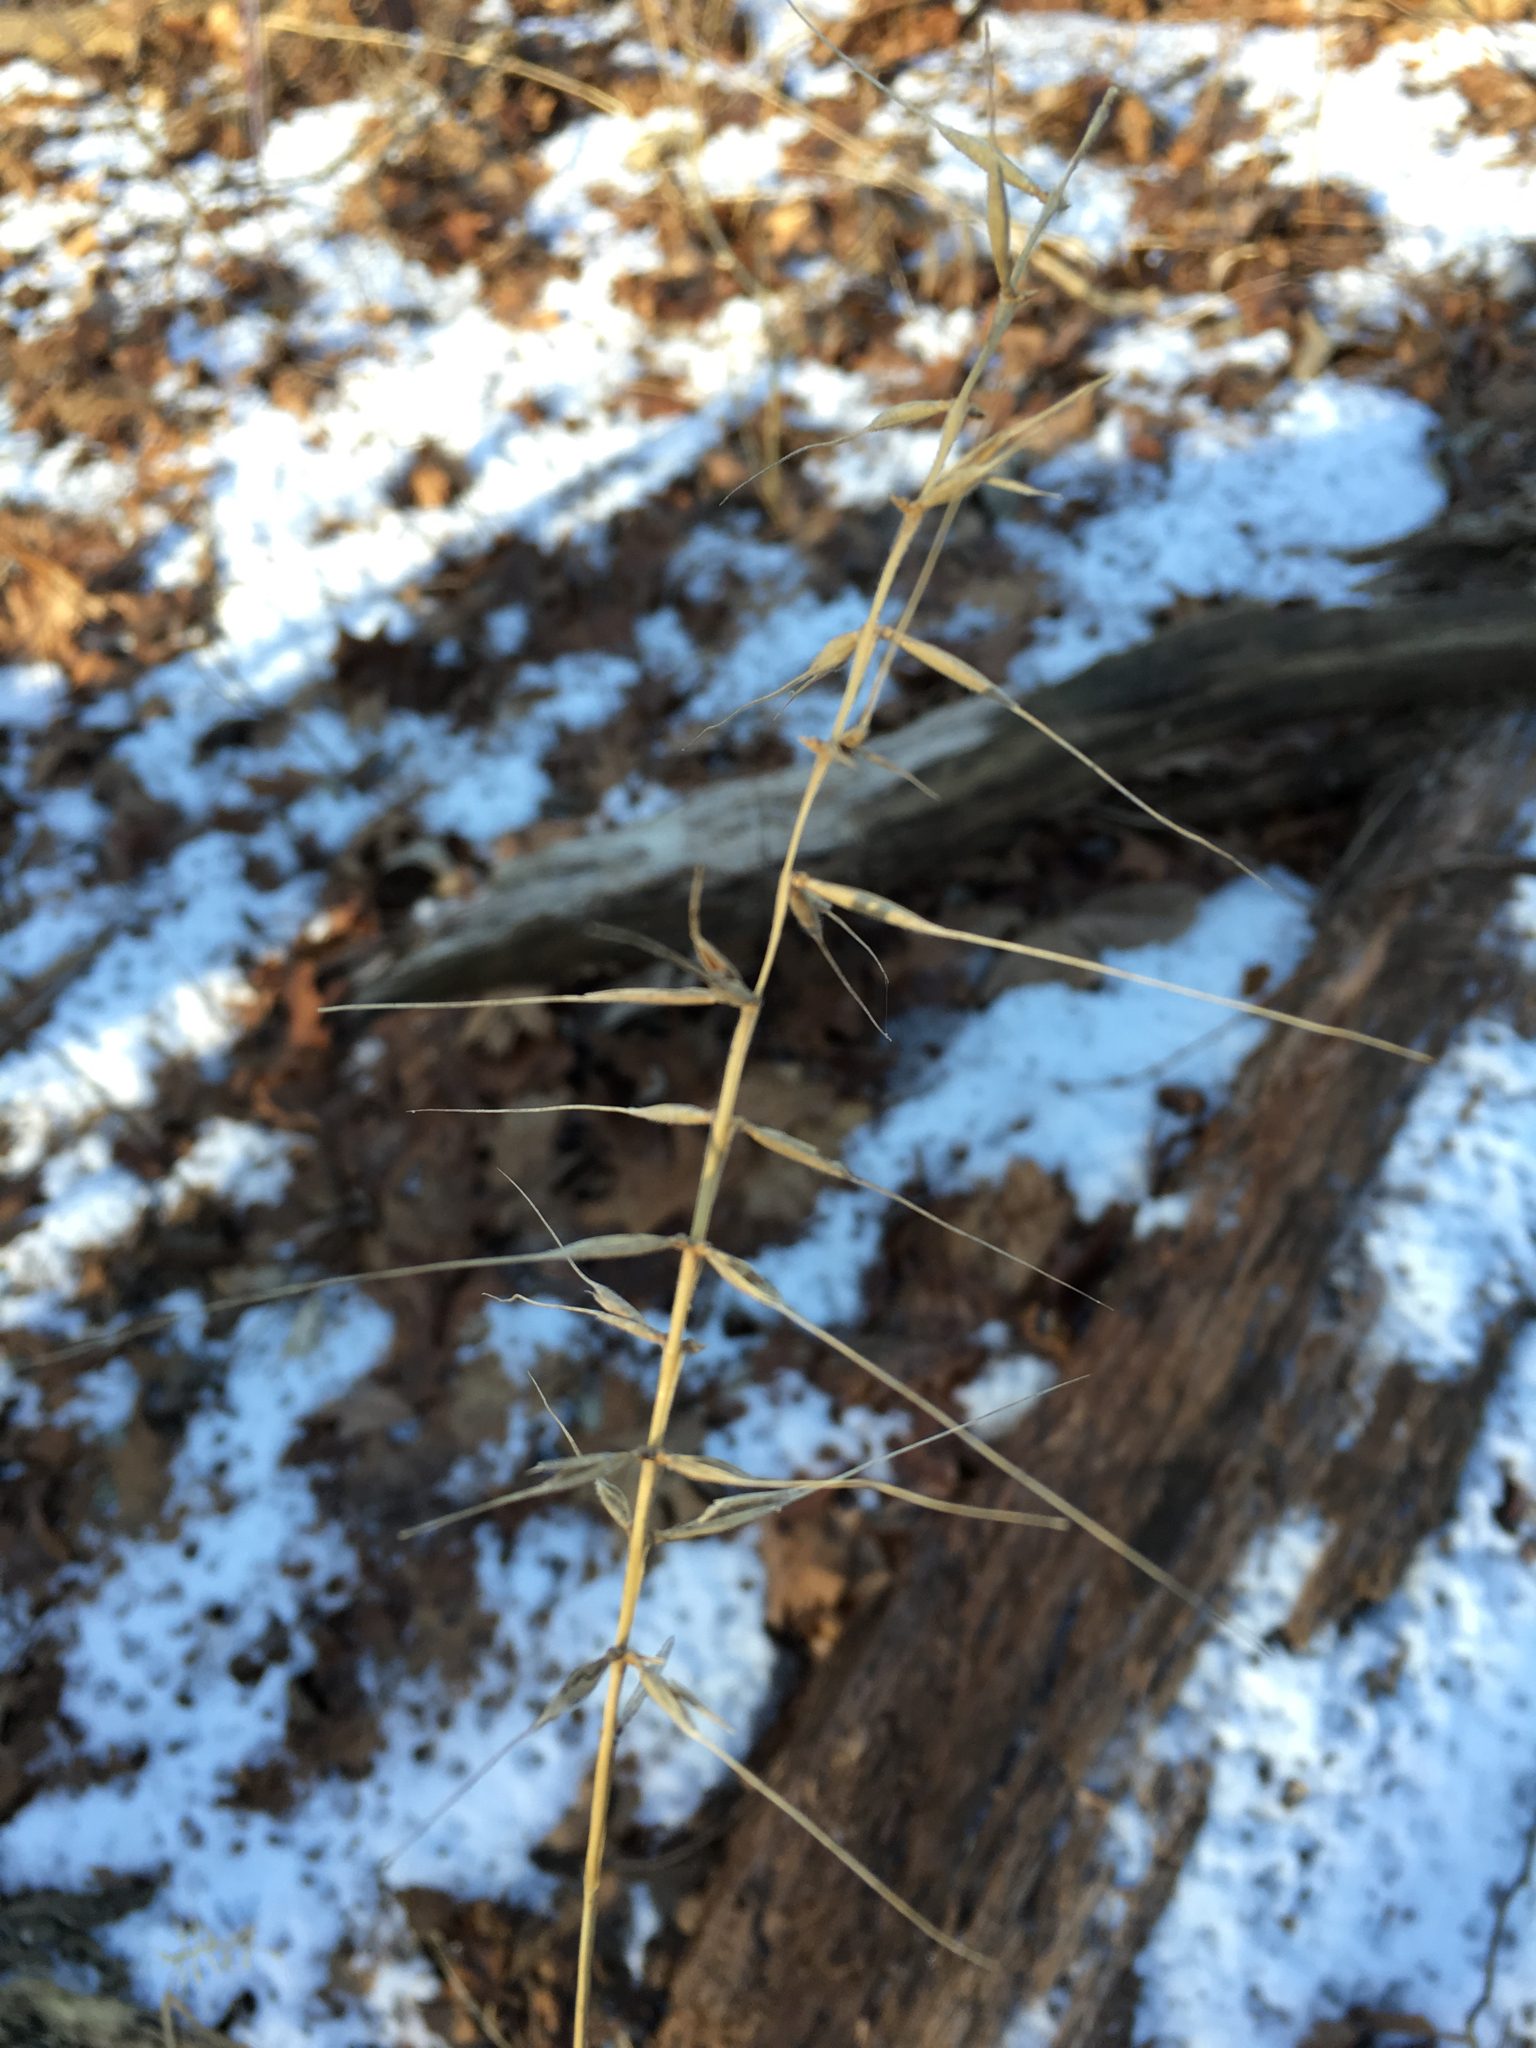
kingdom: Plantae
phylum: Tracheophyta
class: Liliopsida
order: Poales
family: Poaceae
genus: Elymus
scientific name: Elymus hystrix
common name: Bottlebrush grass
